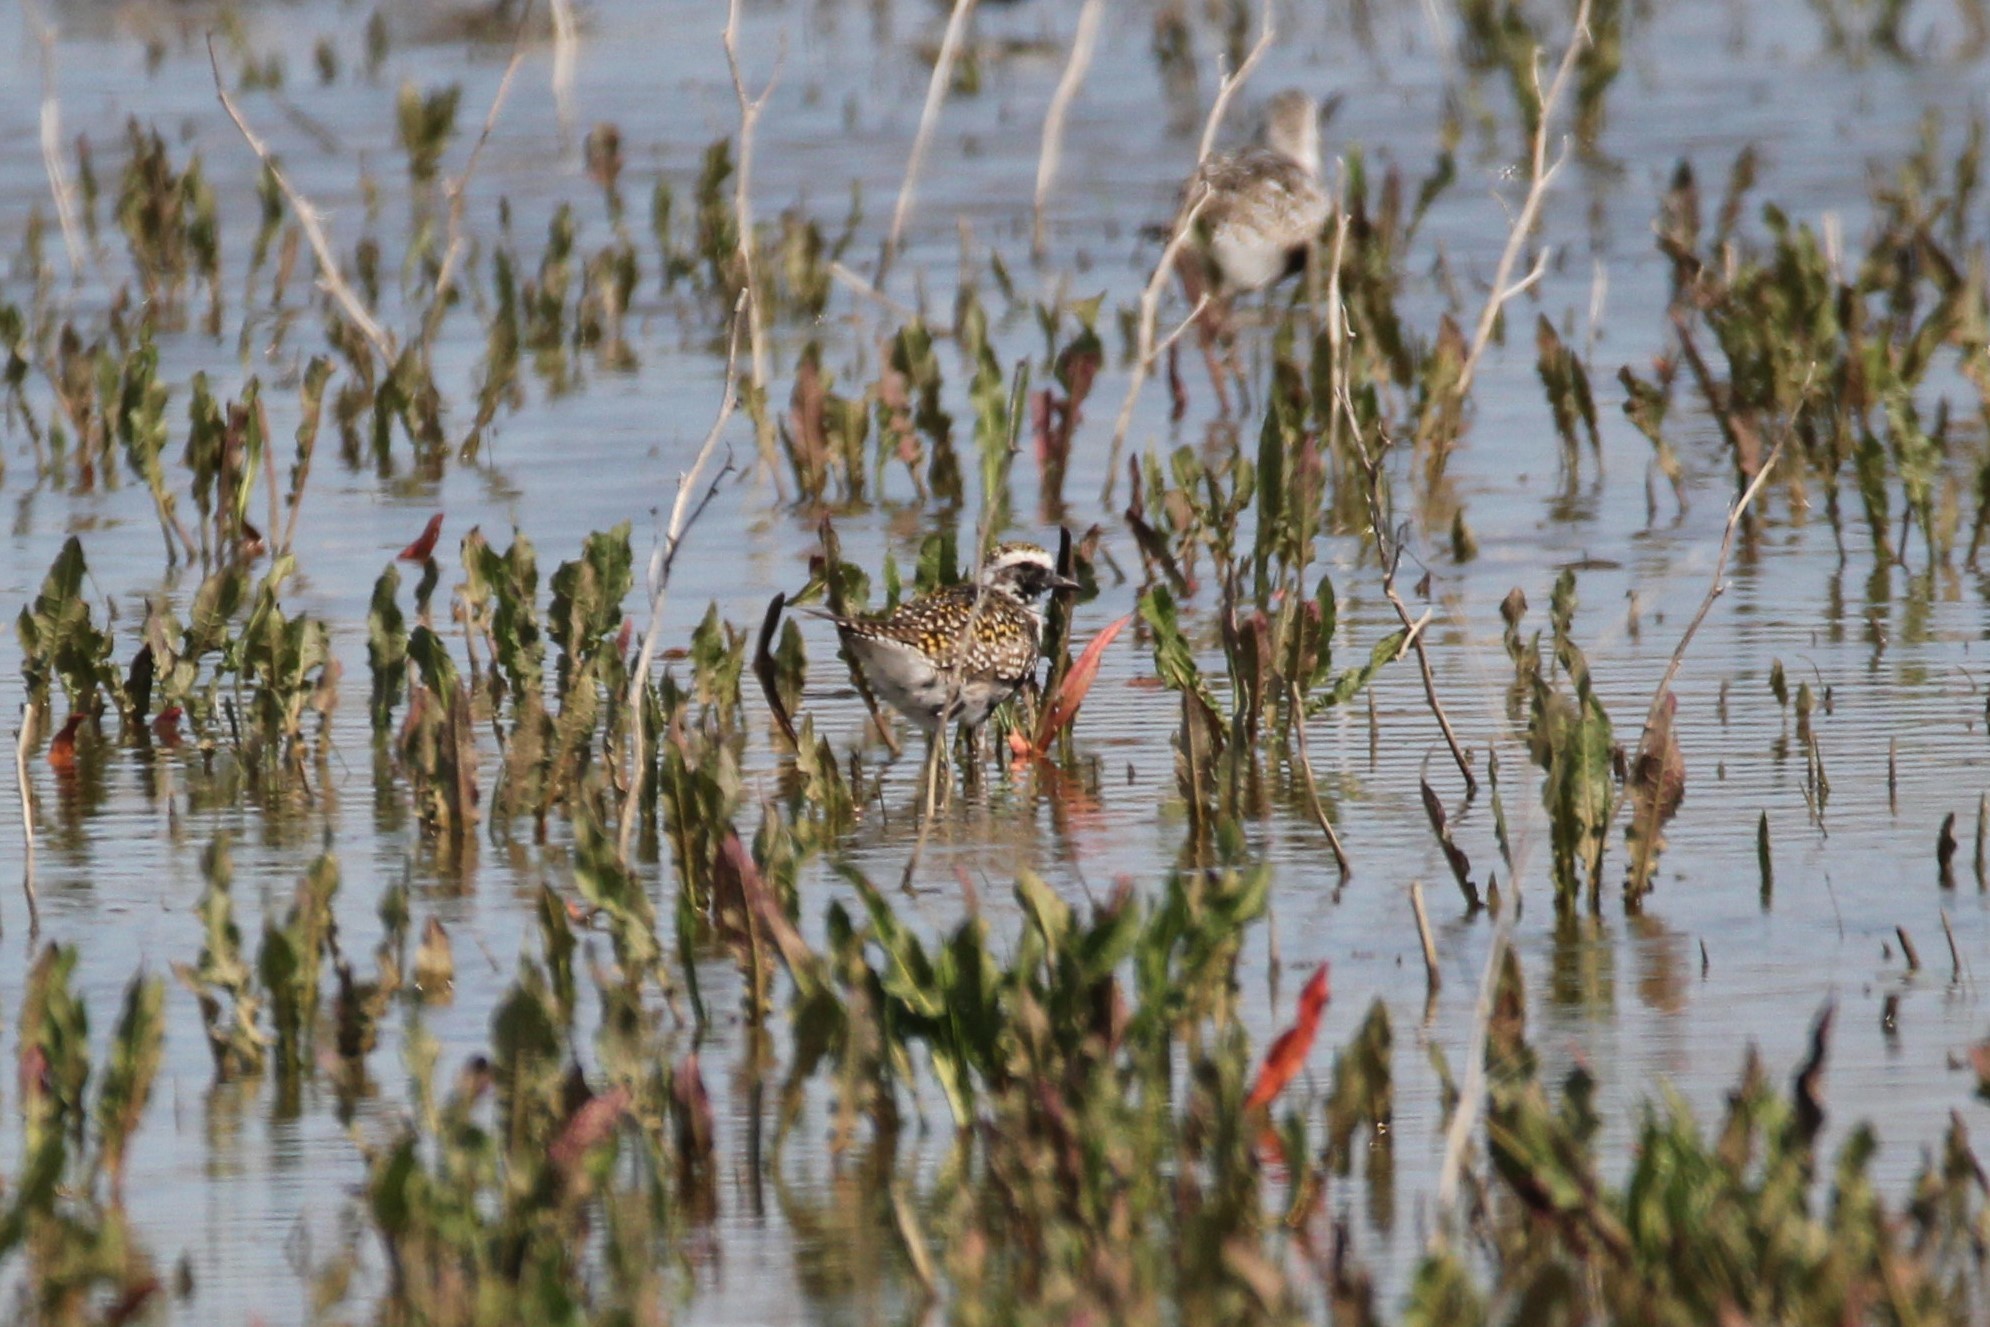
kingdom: Animalia
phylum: Chordata
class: Aves
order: Charadriiformes
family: Charadriidae
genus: Pluvialis
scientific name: Pluvialis dominica
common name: American golden plover
